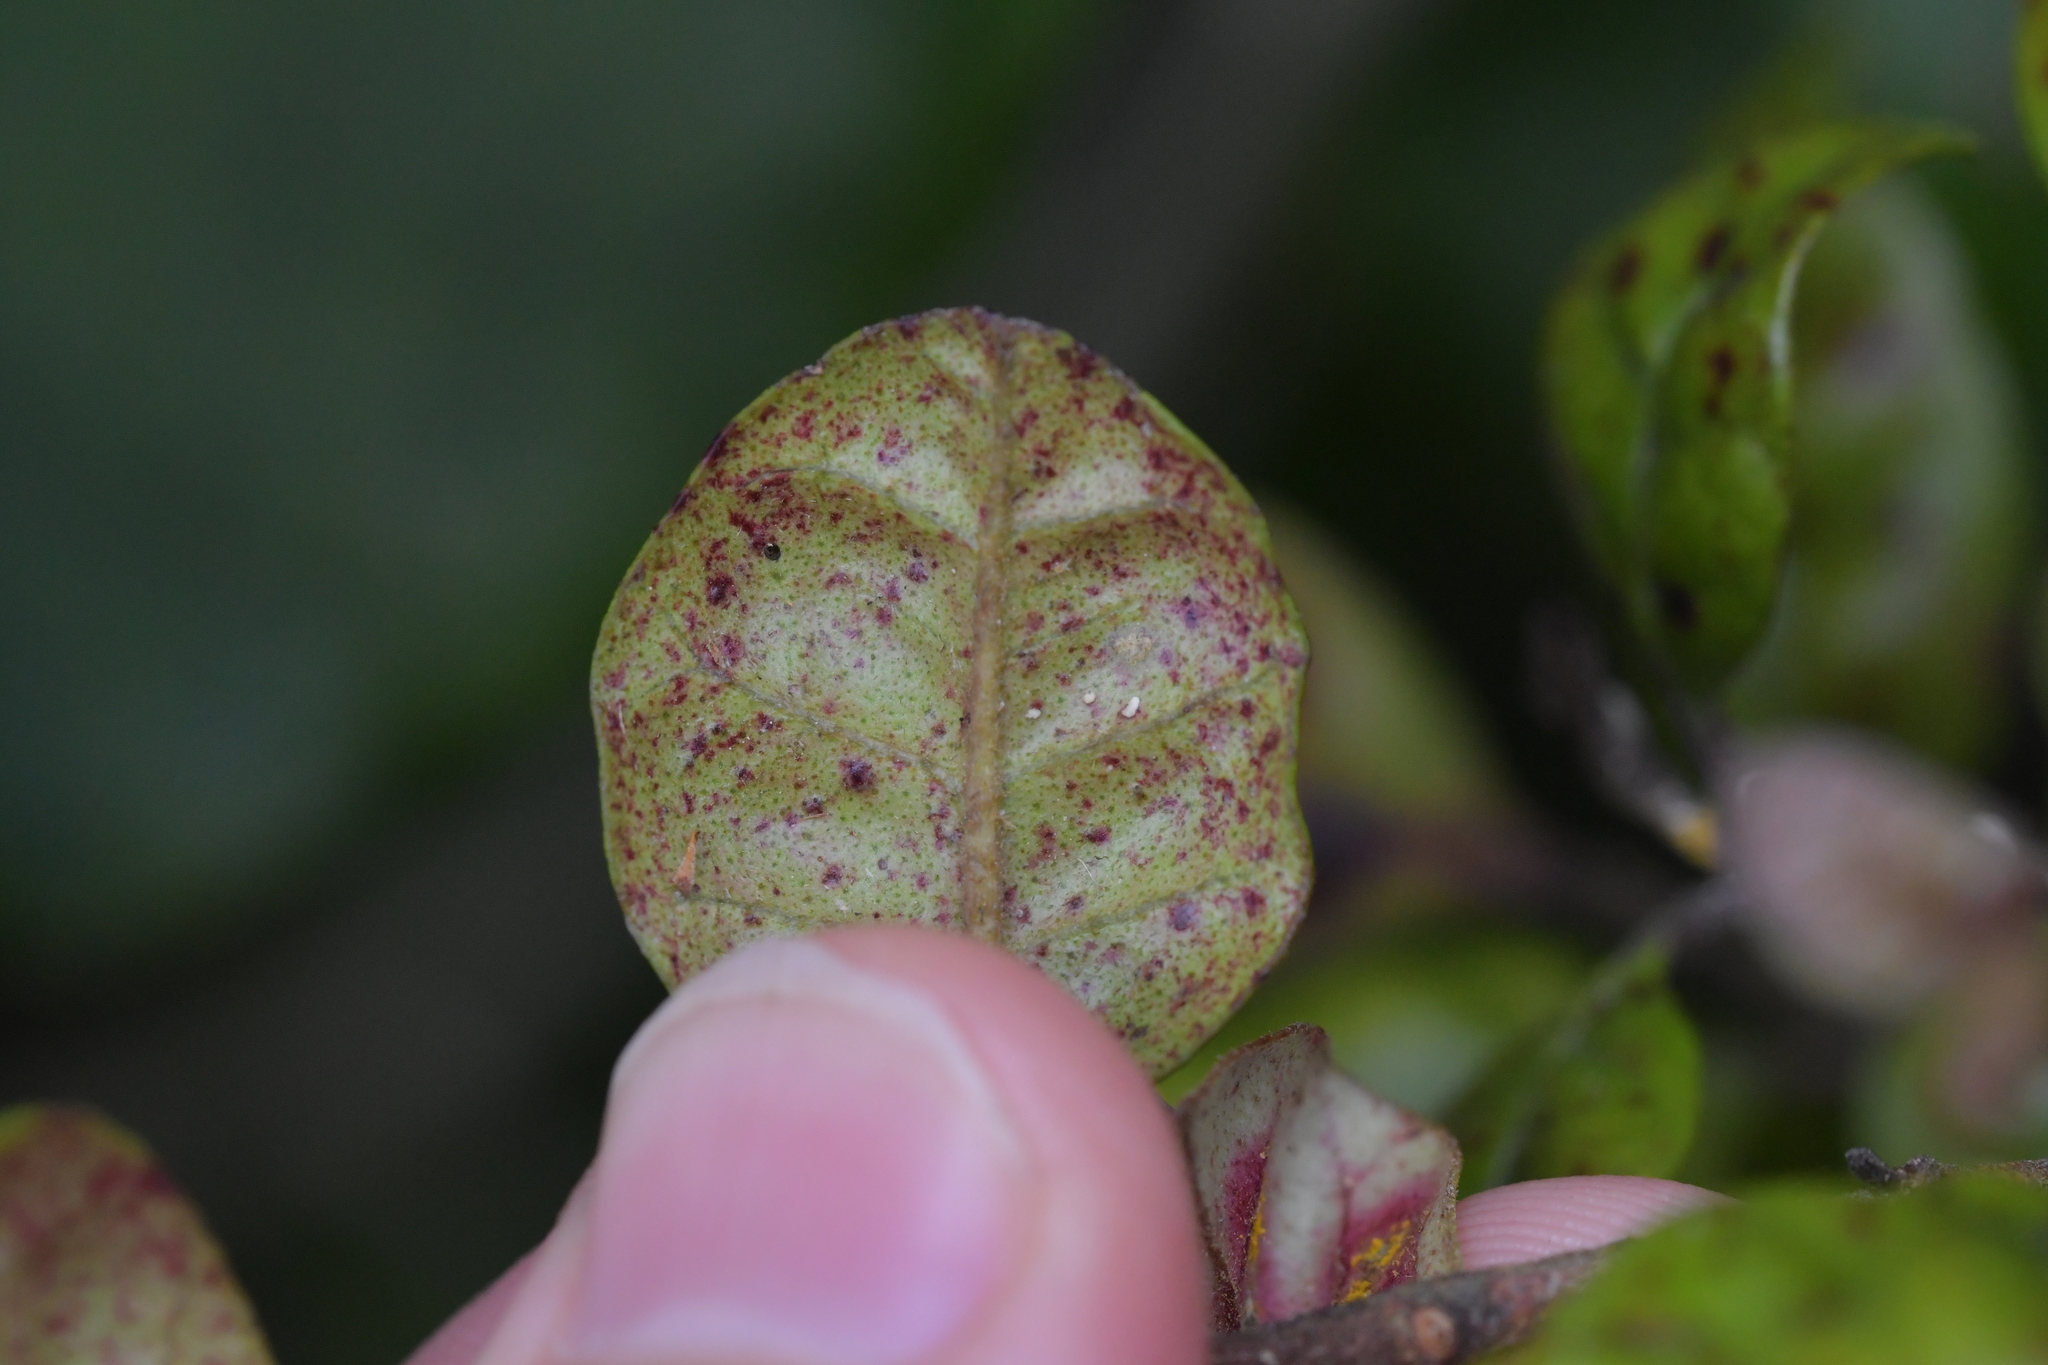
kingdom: Plantae
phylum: Tracheophyta
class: Magnoliopsida
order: Myrtales
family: Myrtaceae
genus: Lophomyrtus
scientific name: Lophomyrtus bullata
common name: Rama rama
